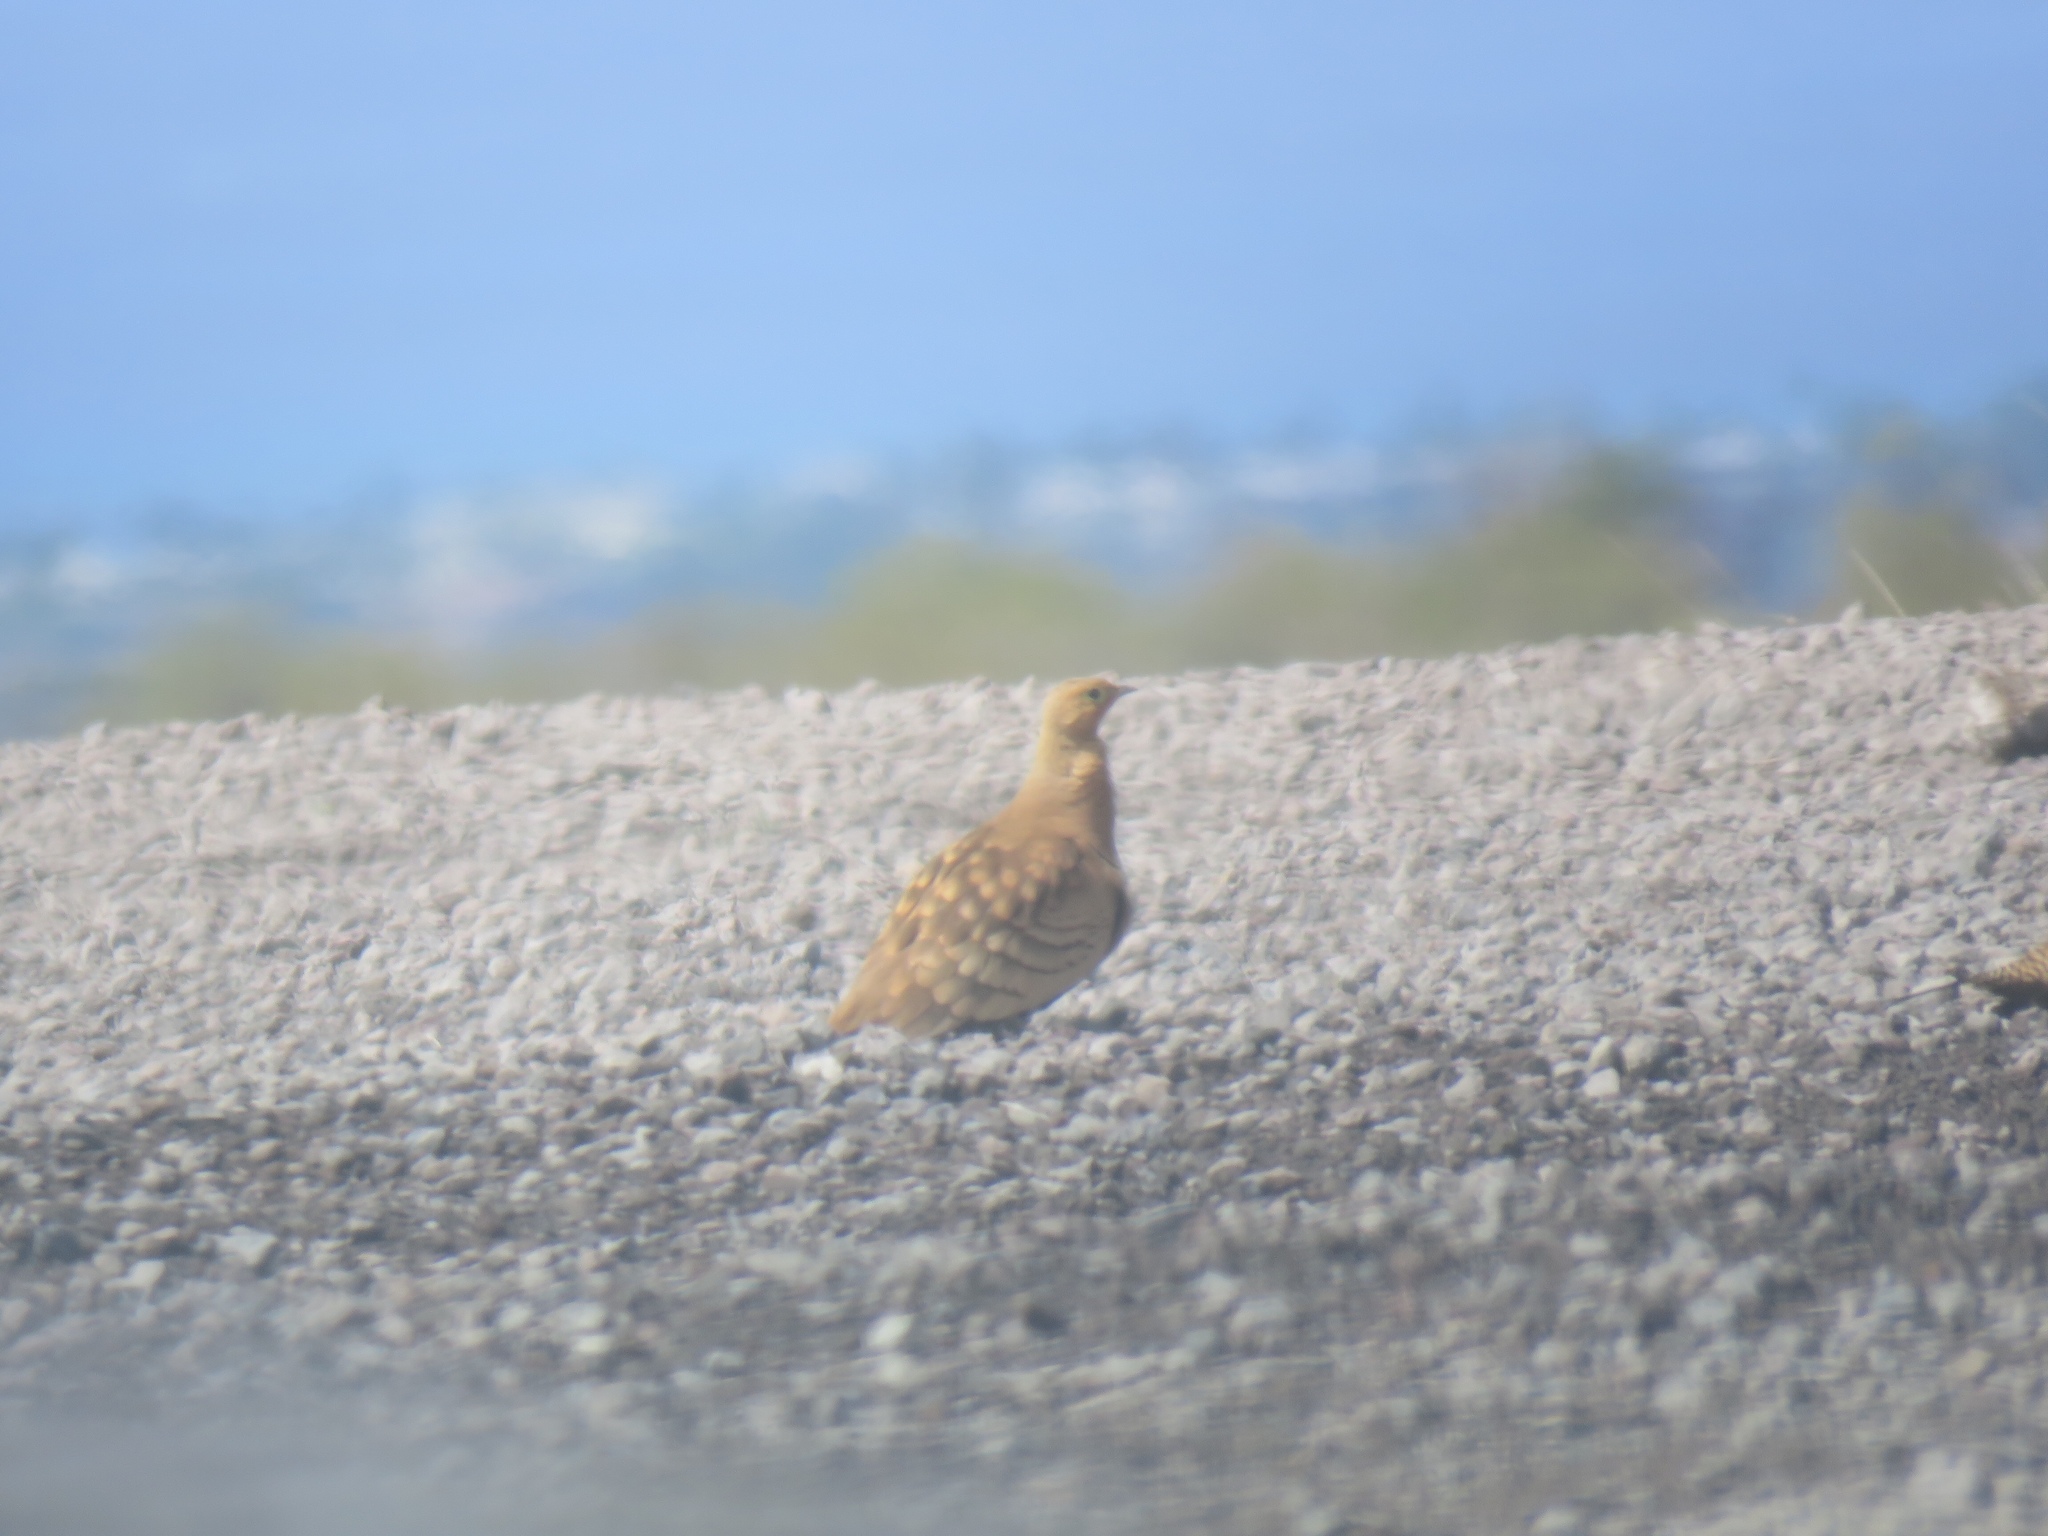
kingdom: Animalia
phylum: Chordata
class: Aves
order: Pteroclidiformes
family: Pteroclididae
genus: Pterocles
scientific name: Pterocles exustus
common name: Chestnut-bellied sandgrouse
